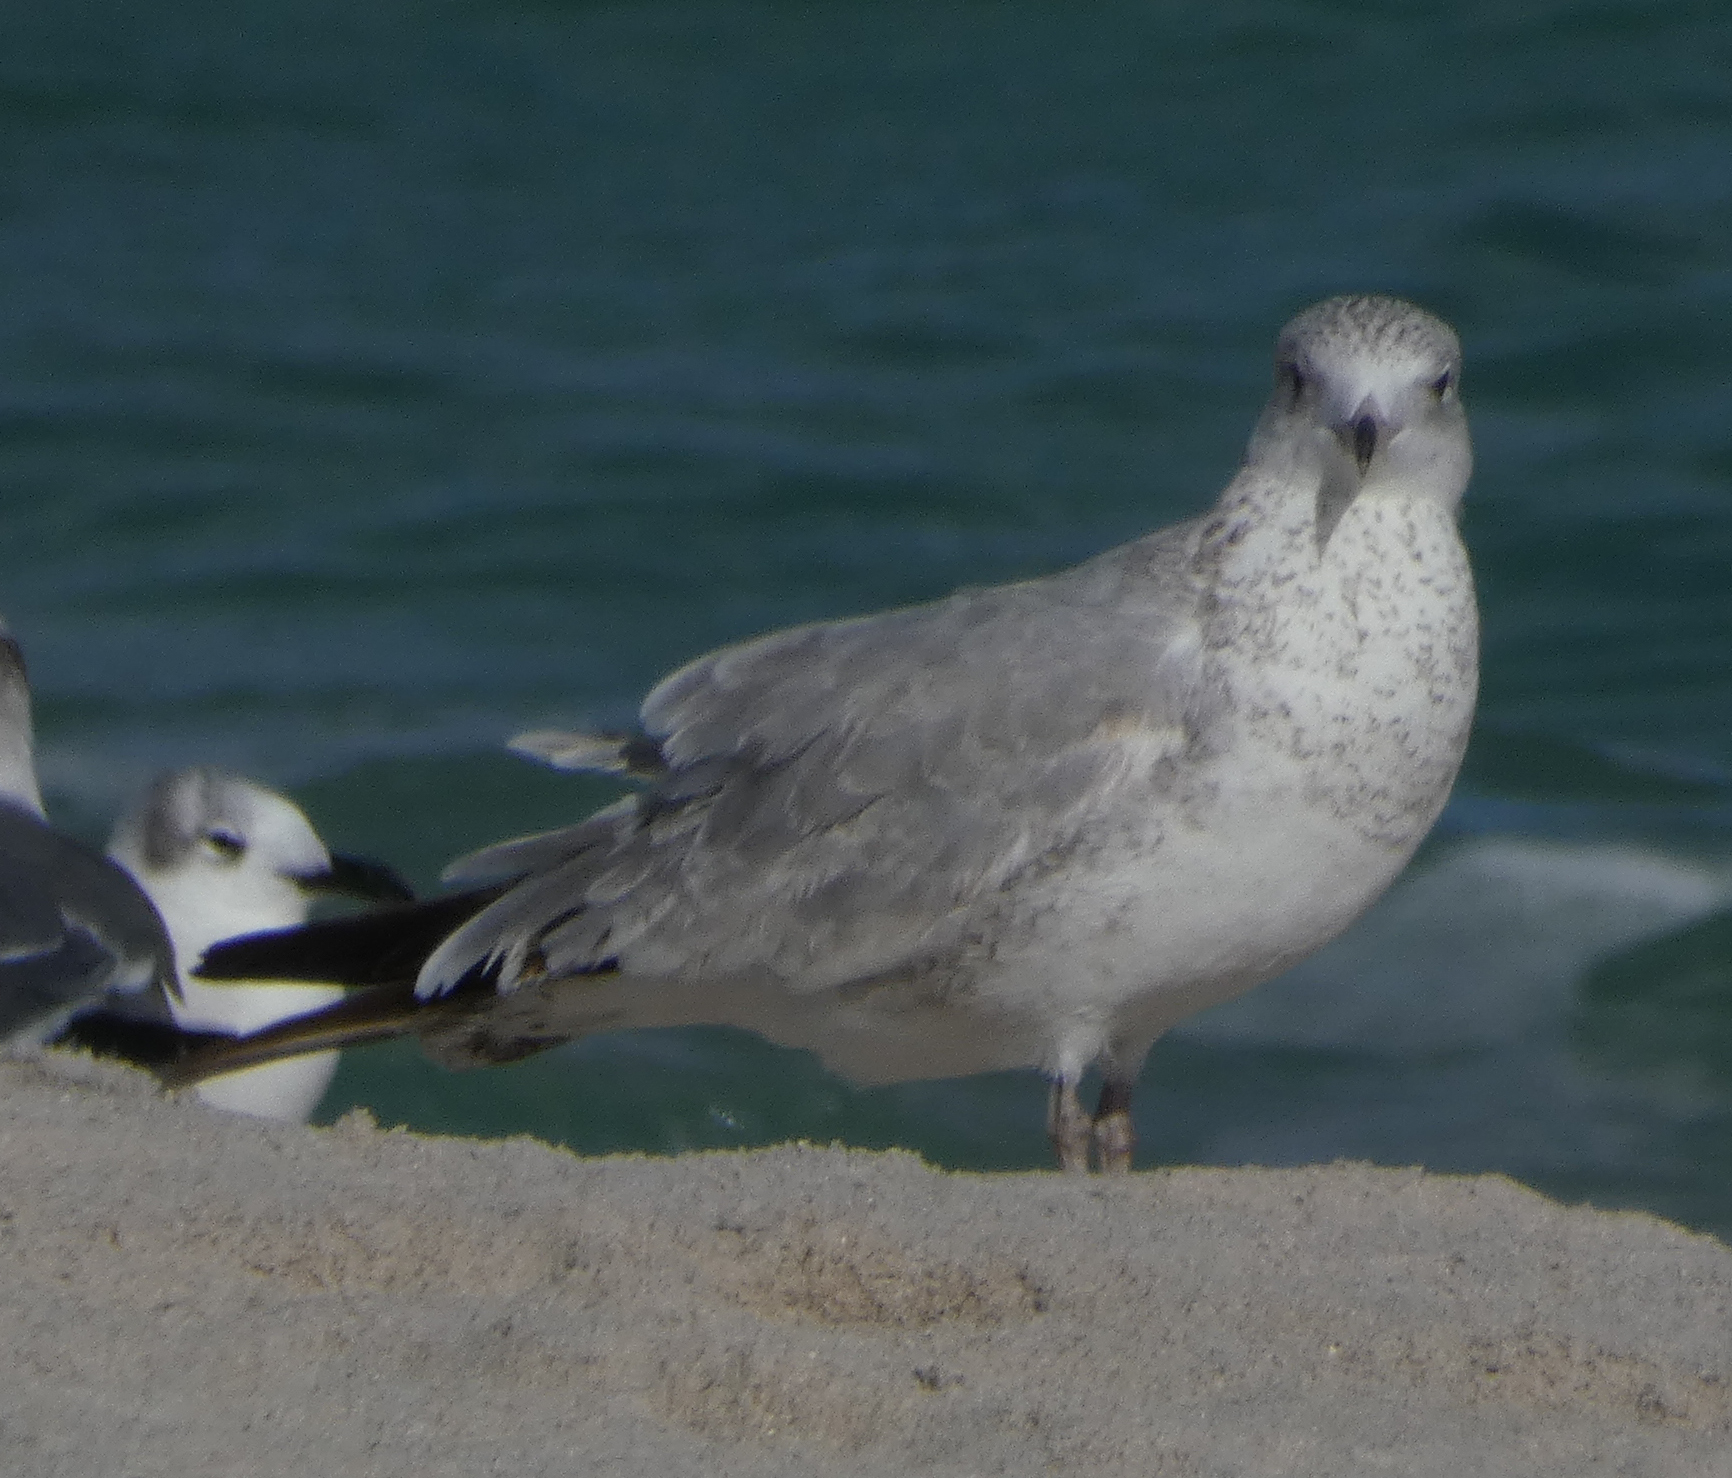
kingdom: Animalia
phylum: Chordata
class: Aves
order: Charadriiformes
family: Laridae
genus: Larus
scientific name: Larus delawarensis
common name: Ring-billed gull
